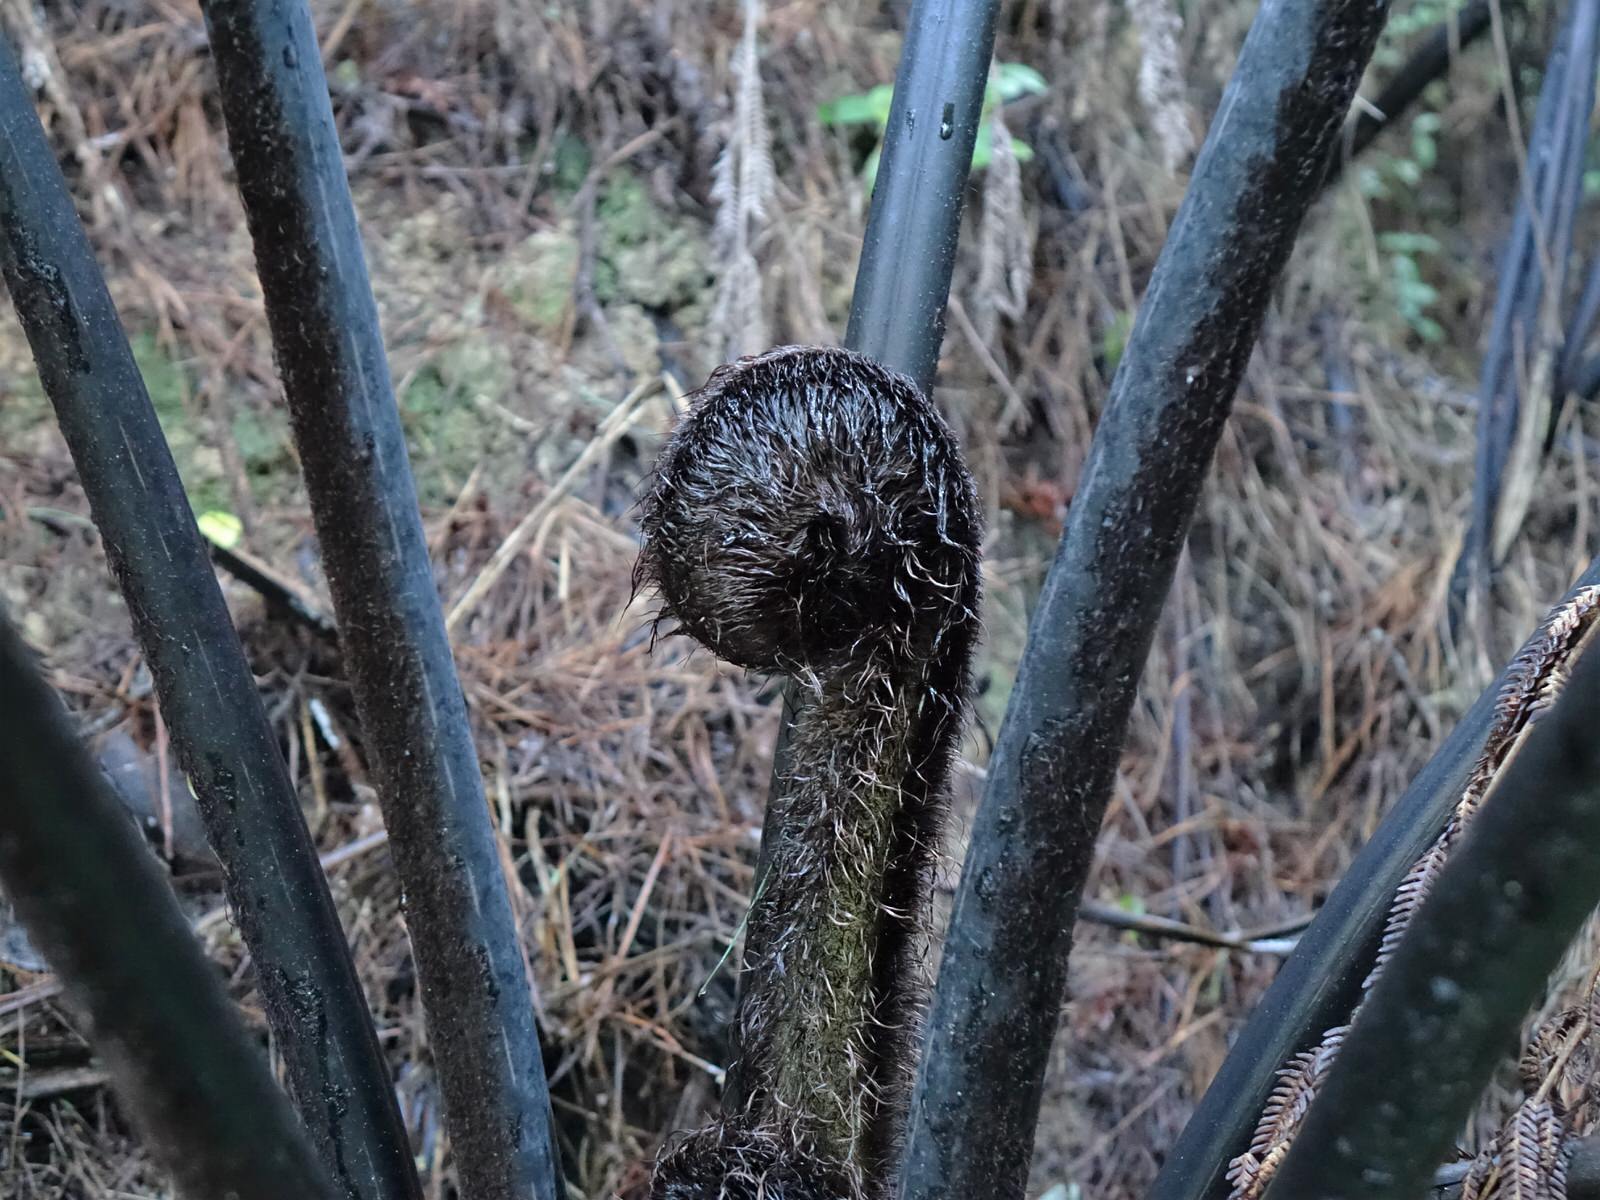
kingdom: Plantae
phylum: Tracheophyta
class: Polypodiopsida
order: Cyatheales
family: Cyatheaceae
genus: Sphaeropteris
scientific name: Sphaeropteris medullaris
